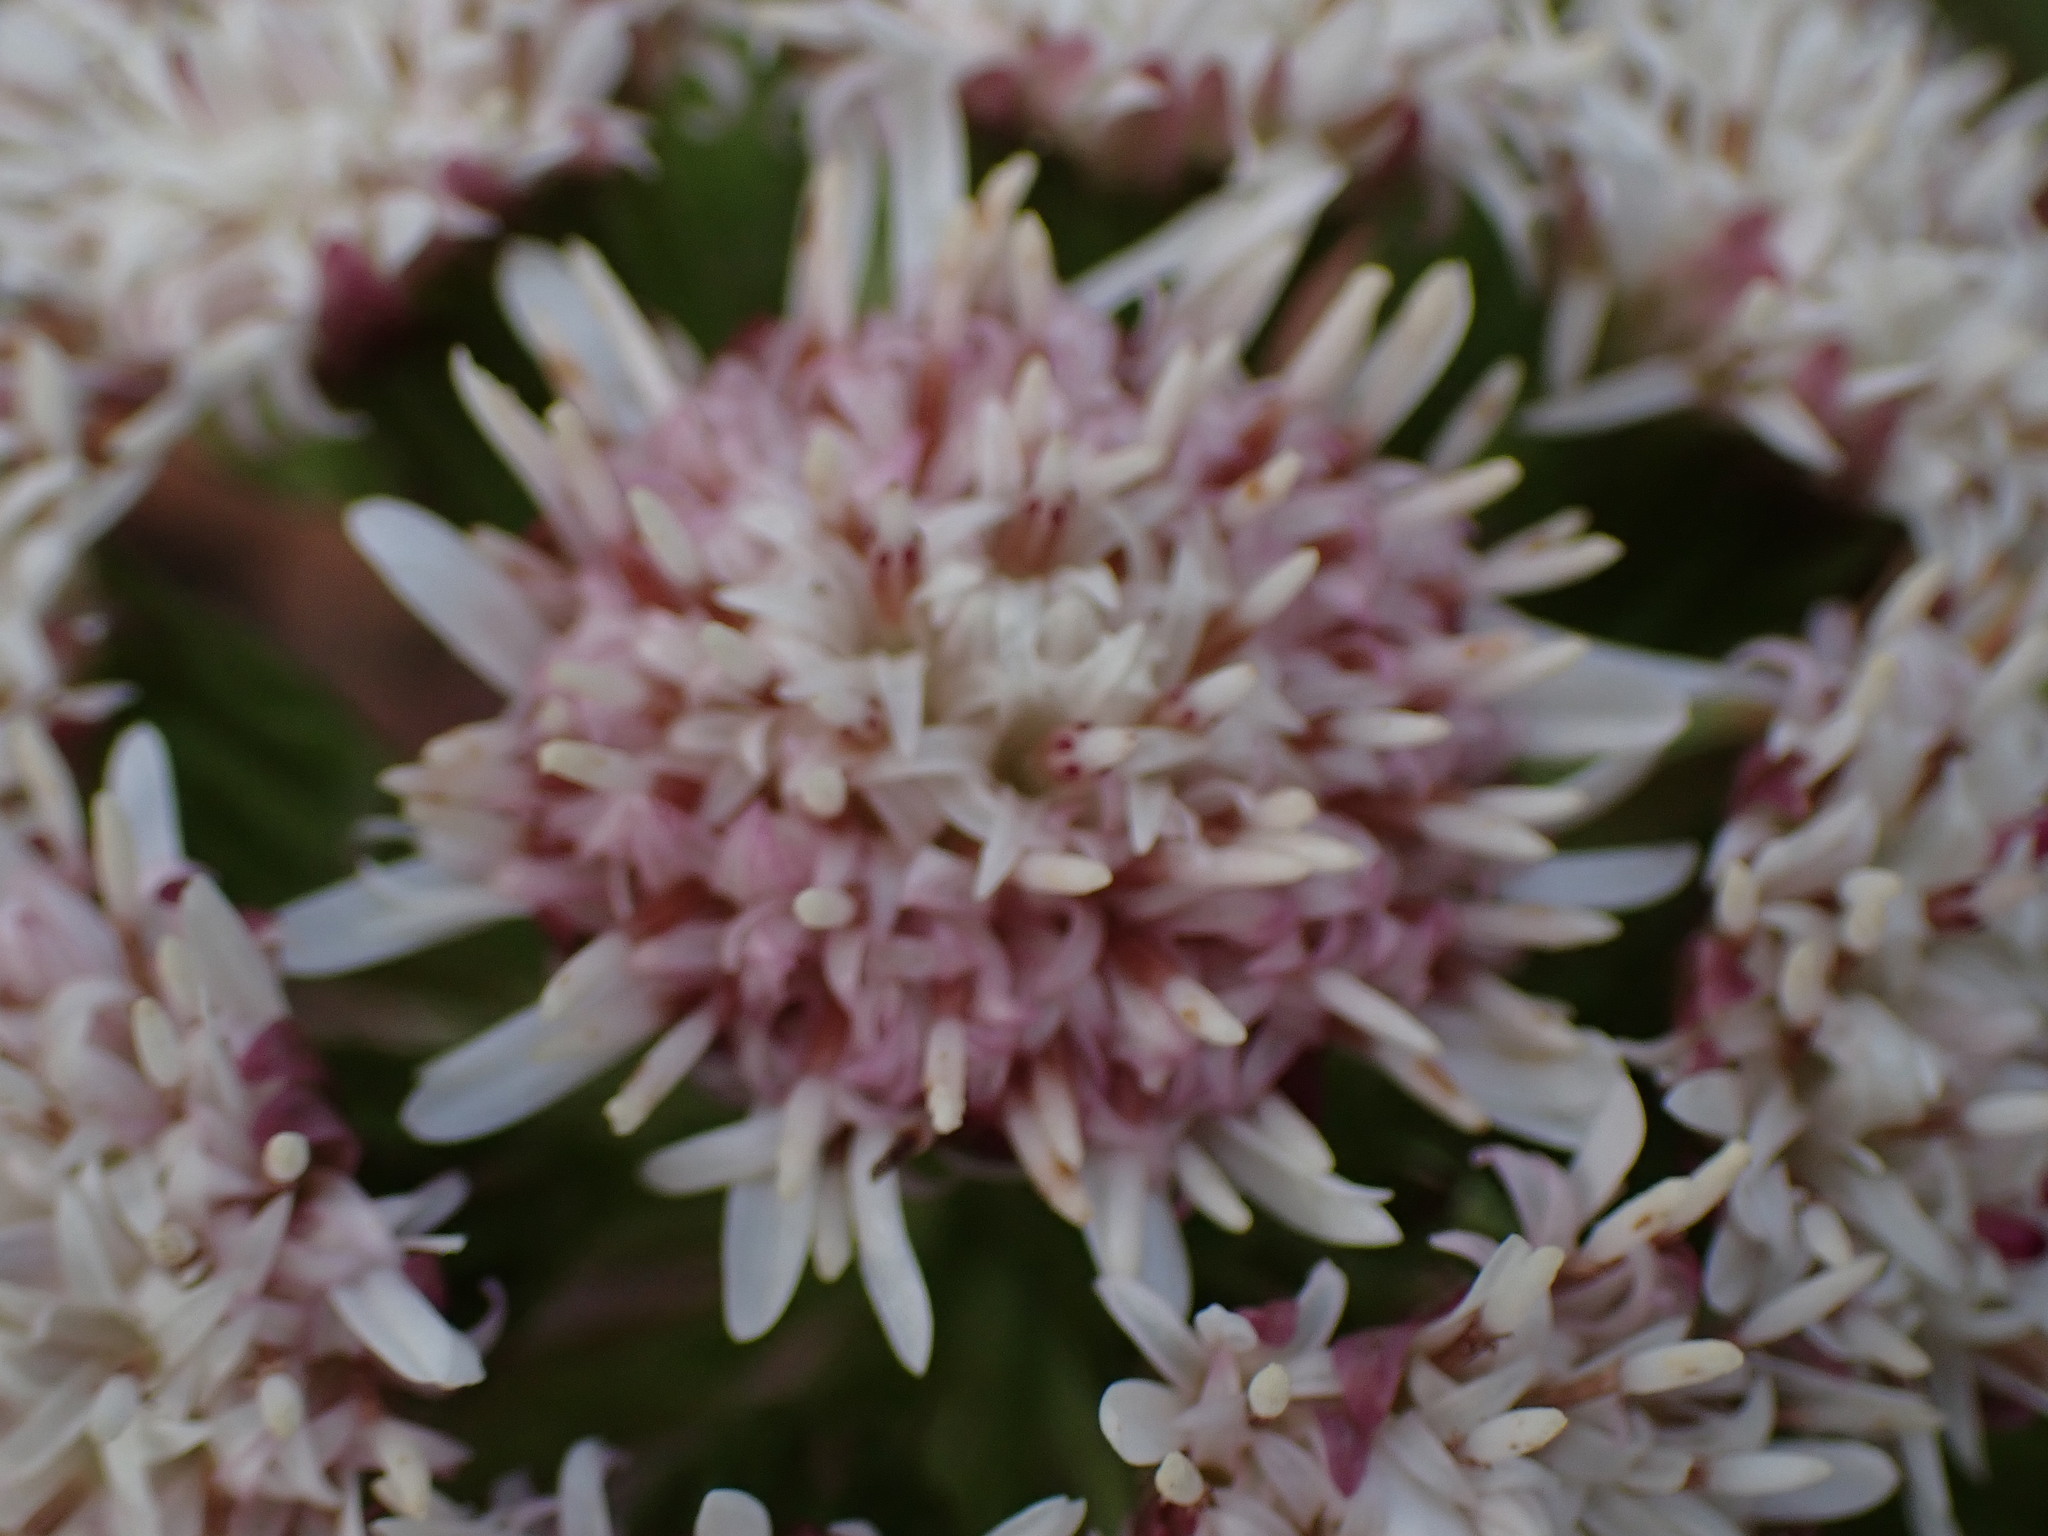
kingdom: Plantae
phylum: Tracheophyta
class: Magnoliopsida
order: Asterales
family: Asteraceae
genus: Petasites
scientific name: Petasites frigidus
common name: Arctic butterbur
